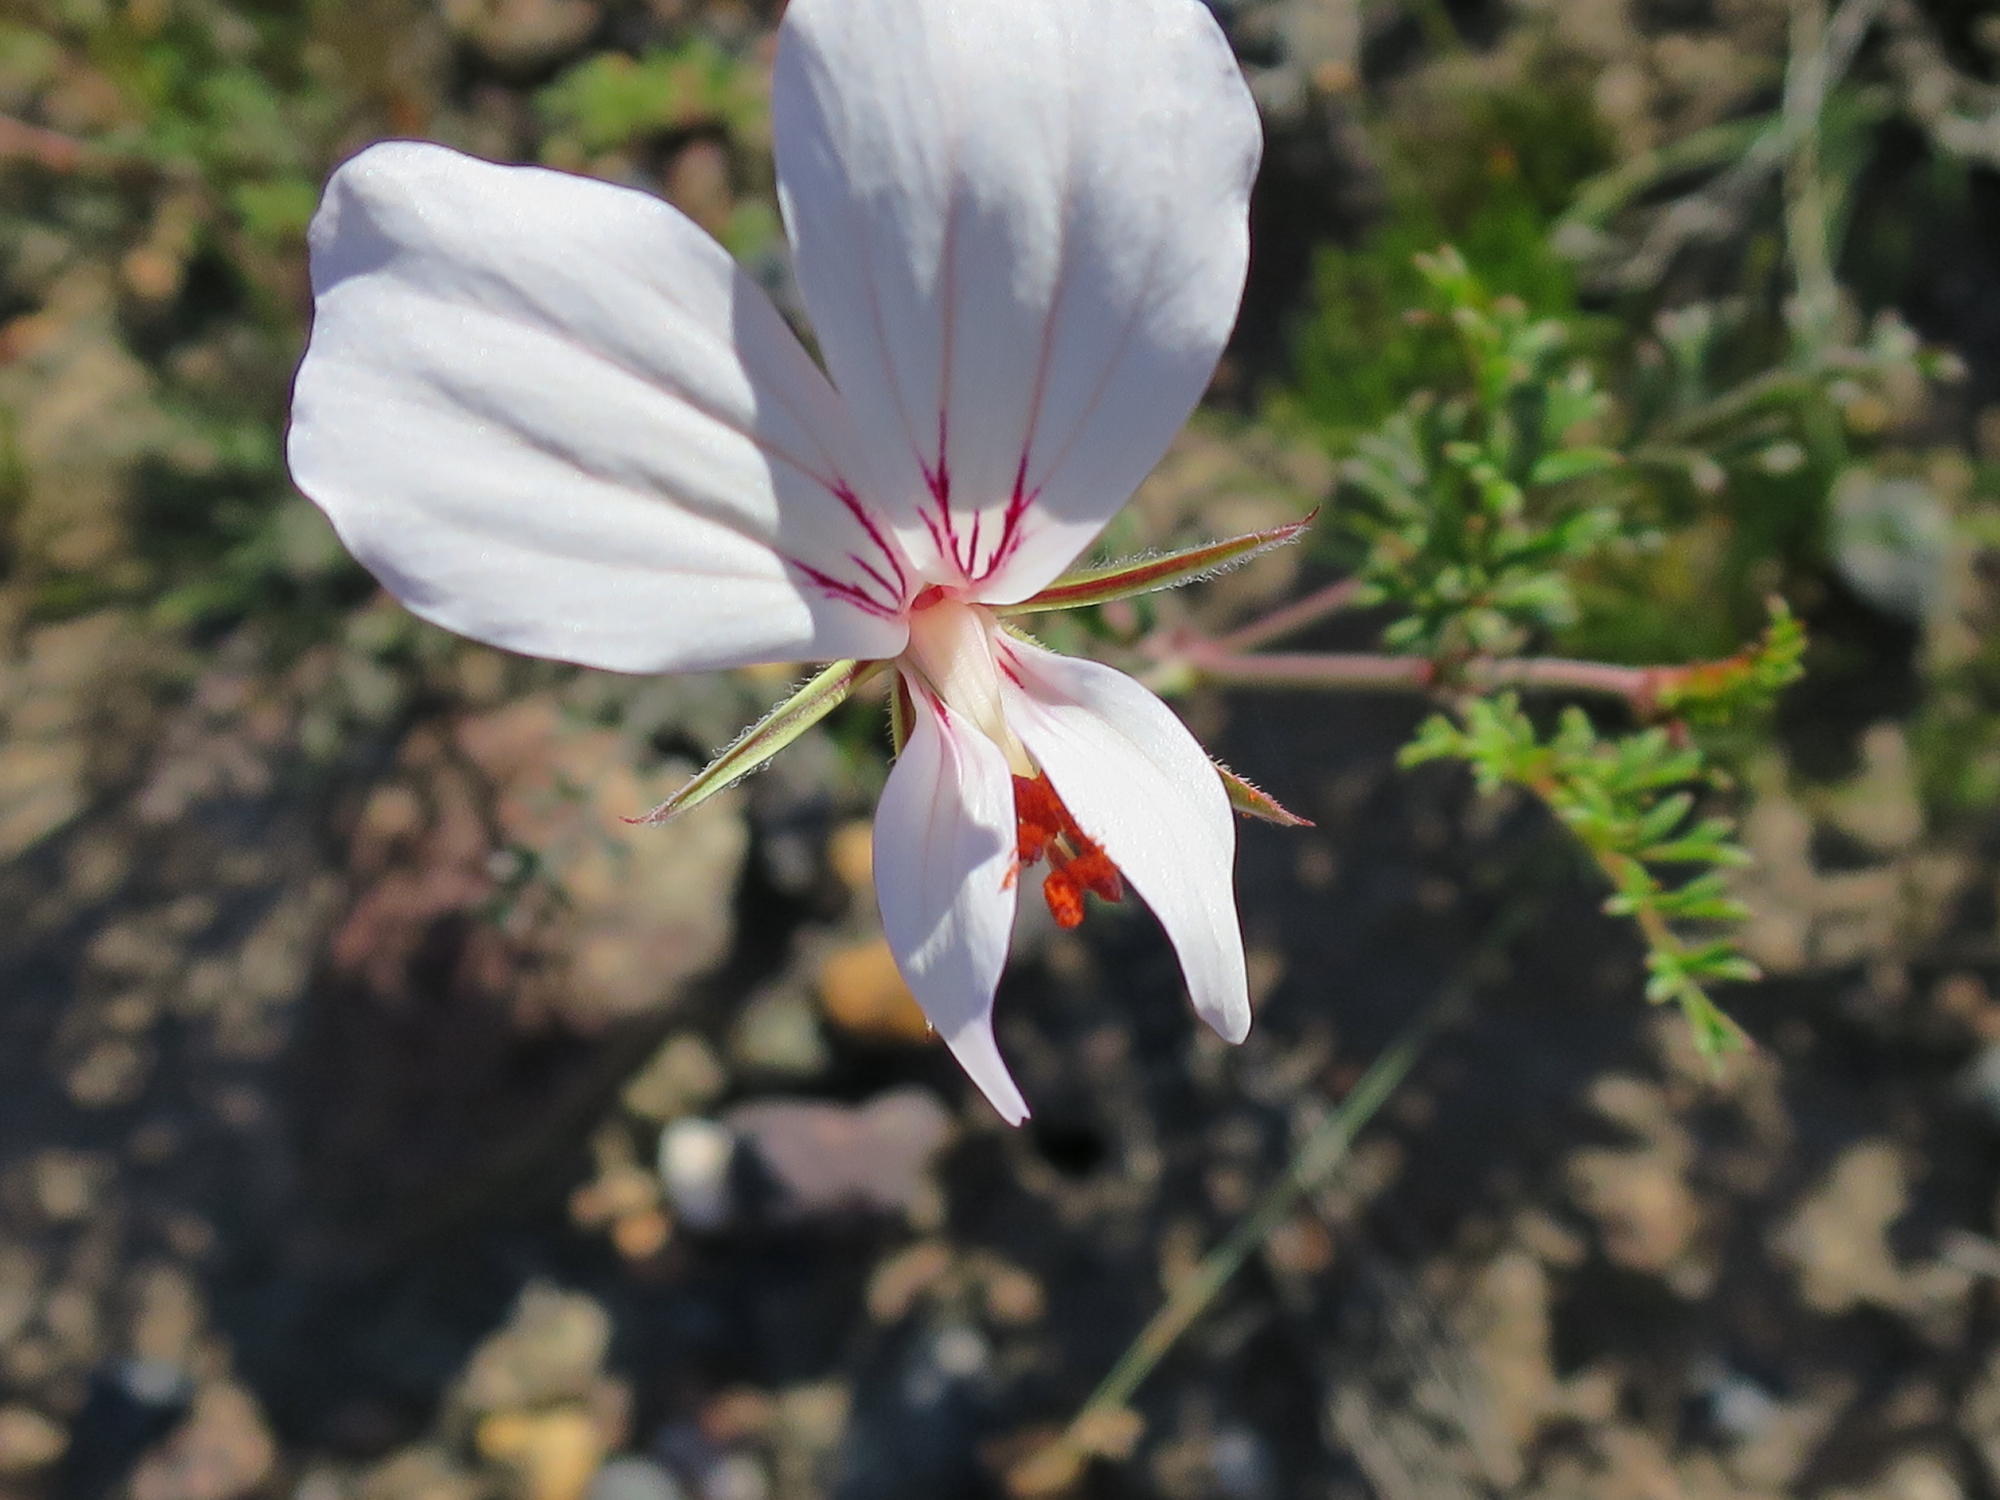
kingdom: Plantae
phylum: Tracheophyta
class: Magnoliopsida
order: Geraniales
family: Geraniaceae
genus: Pelargonium
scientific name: Pelargonium myrrhifolium
